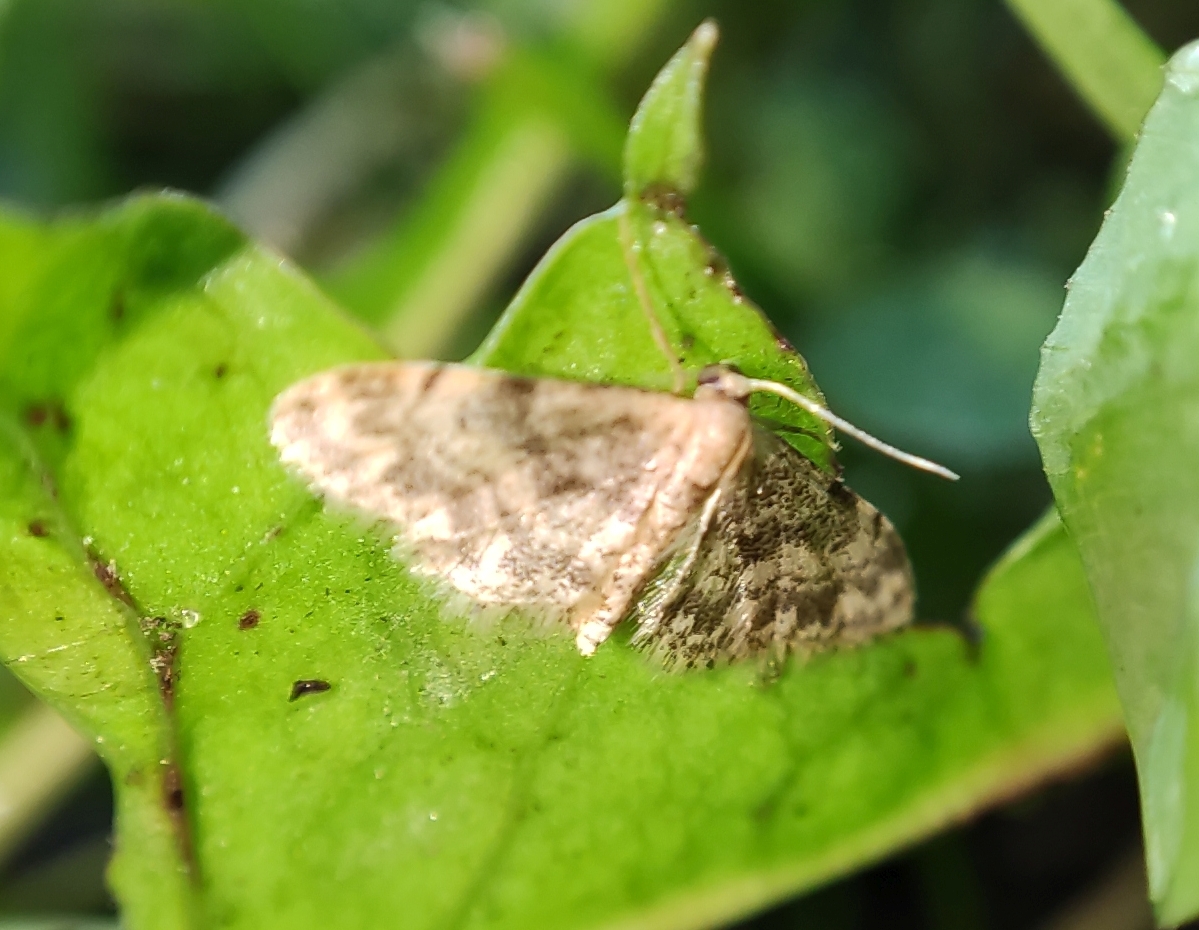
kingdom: Animalia
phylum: Arthropoda
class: Insecta
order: Lepidoptera
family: Geometridae
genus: Idaea
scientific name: Idaea inquinata
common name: Rusty wave
